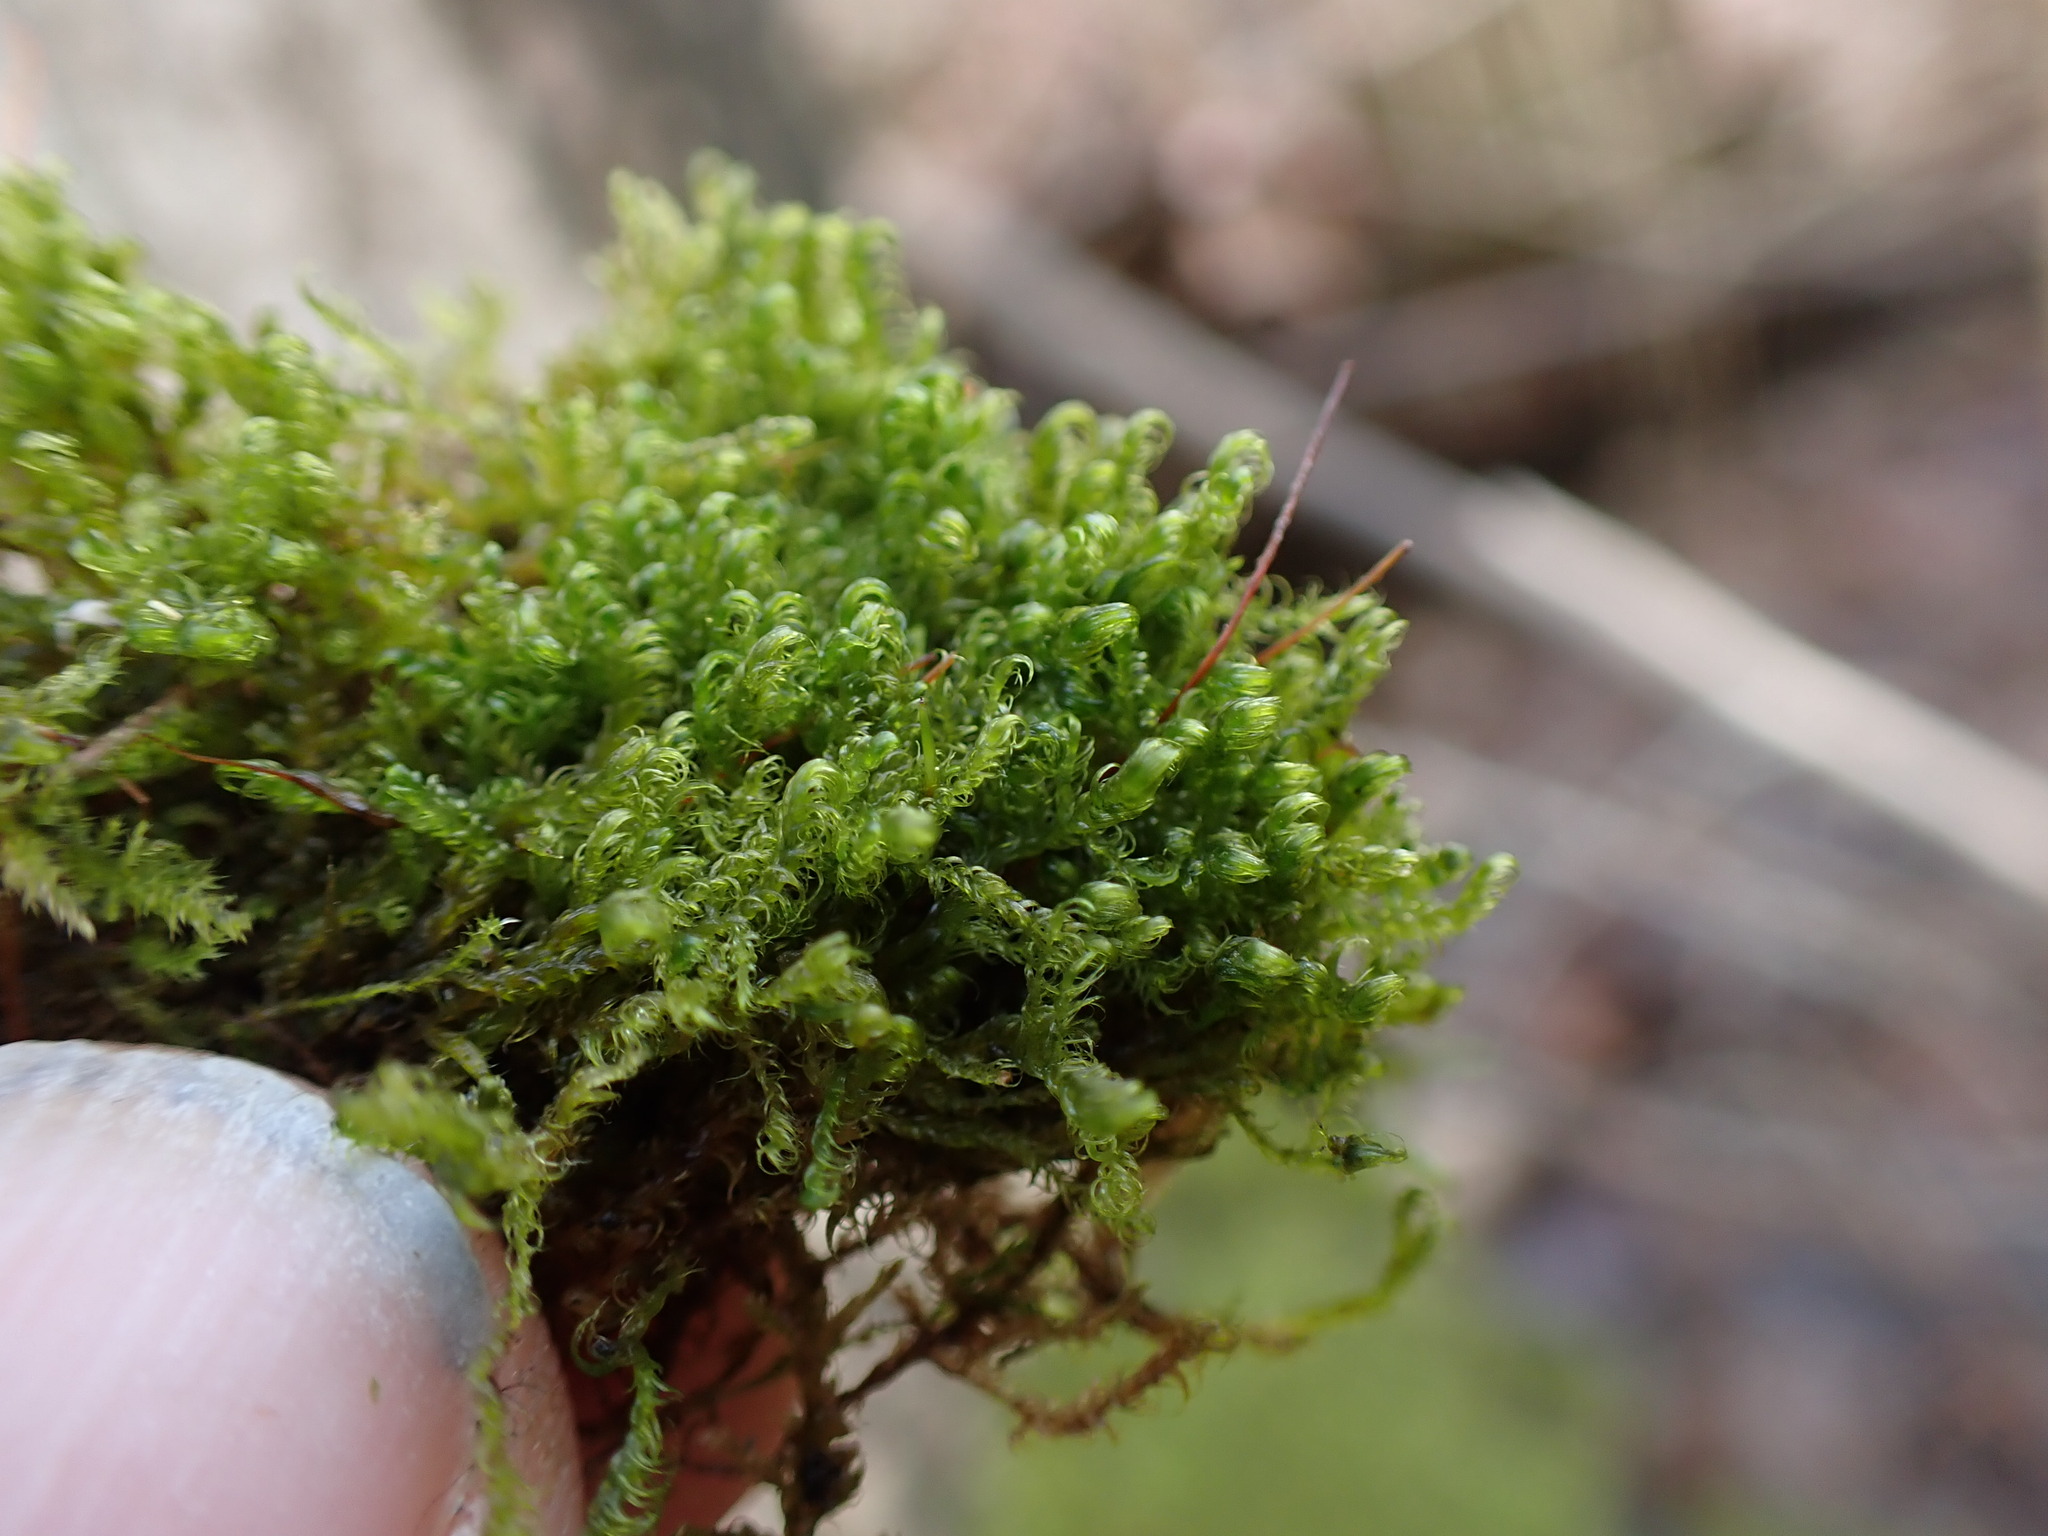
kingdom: Plantae
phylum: Bryophyta
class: Bryopsida
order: Hypnales
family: Scorpidiaceae
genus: Sanionia
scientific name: Sanionia uncinata
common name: Sickle moss
